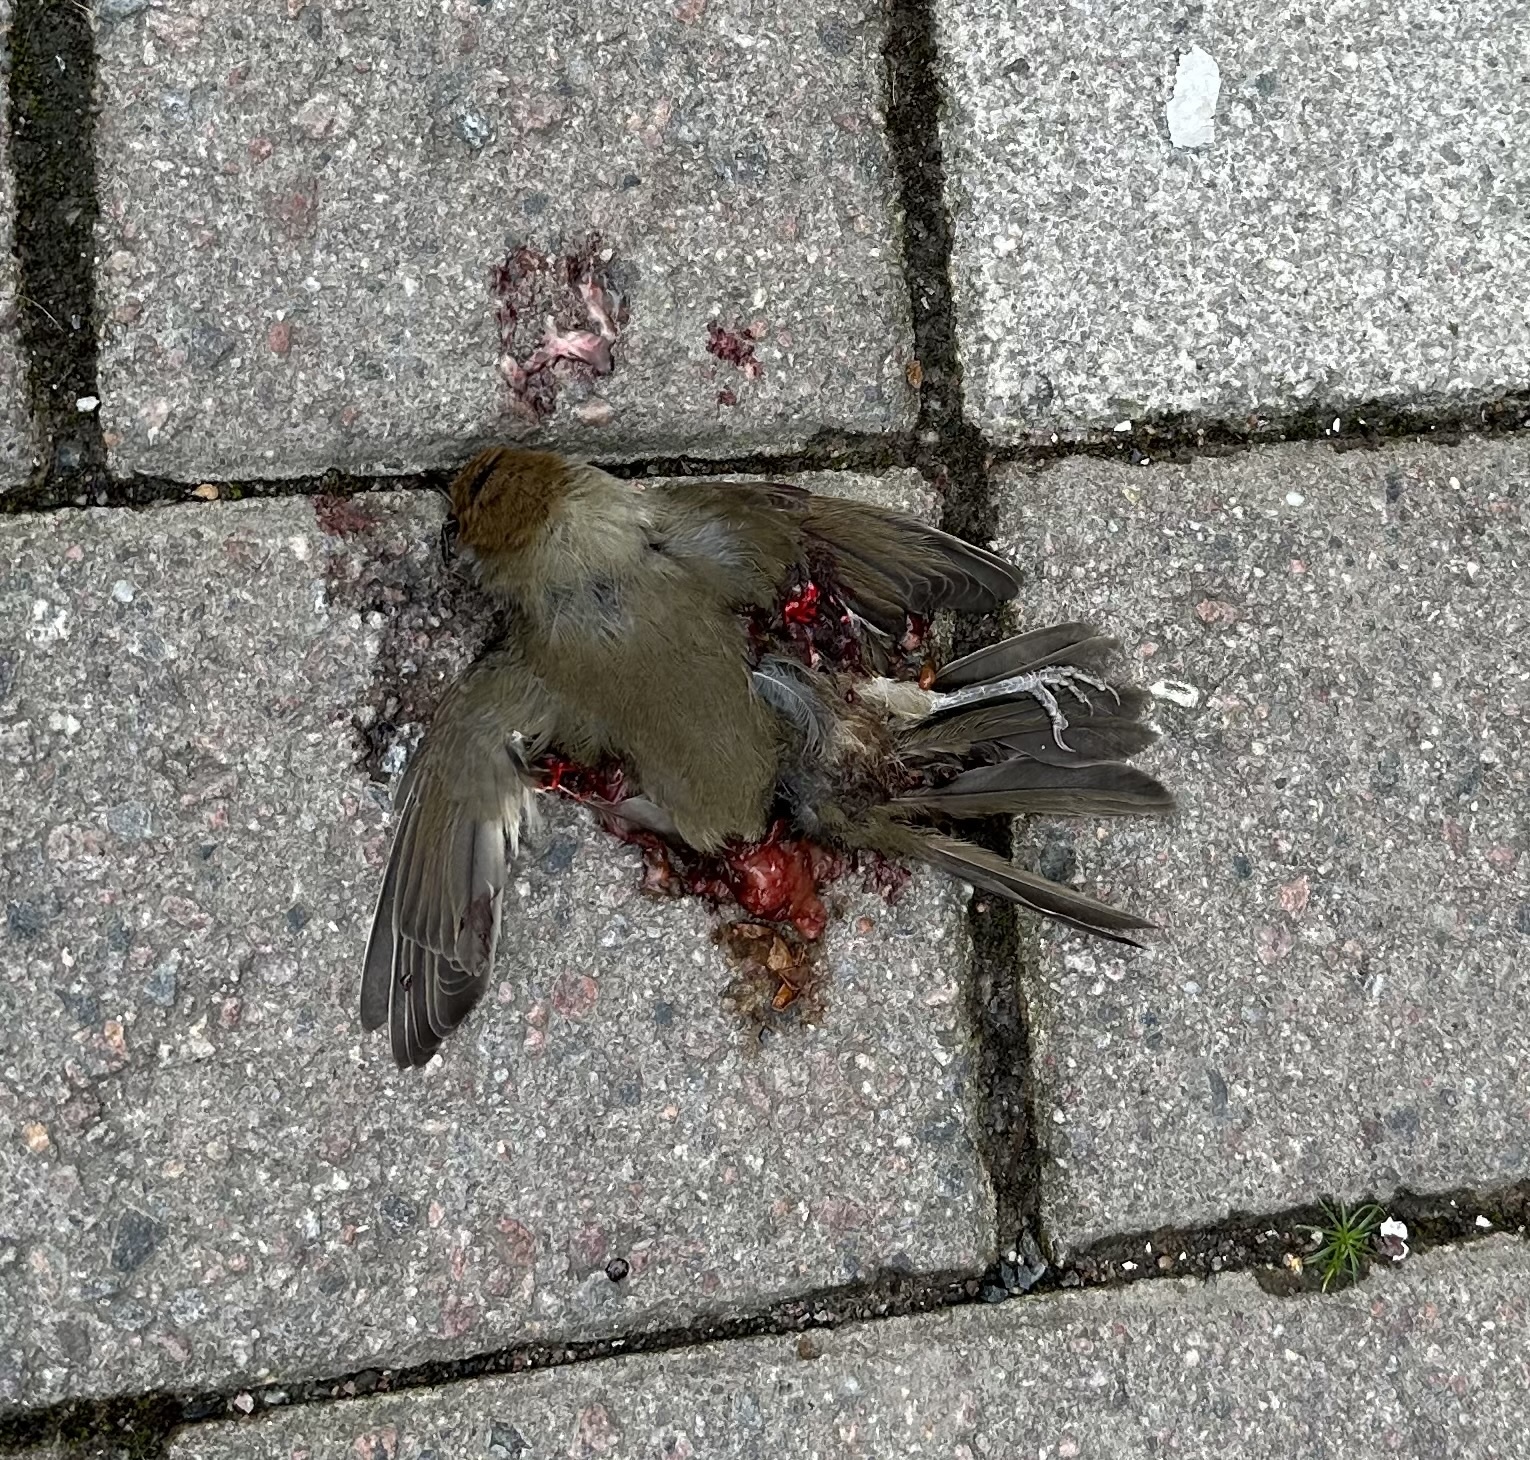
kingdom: Animalia
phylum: Chordata
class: Aves
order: Passeriformes
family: Sylviidae
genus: Sylvia
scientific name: Sylvia atricapilla
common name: Eurasian blackcap
